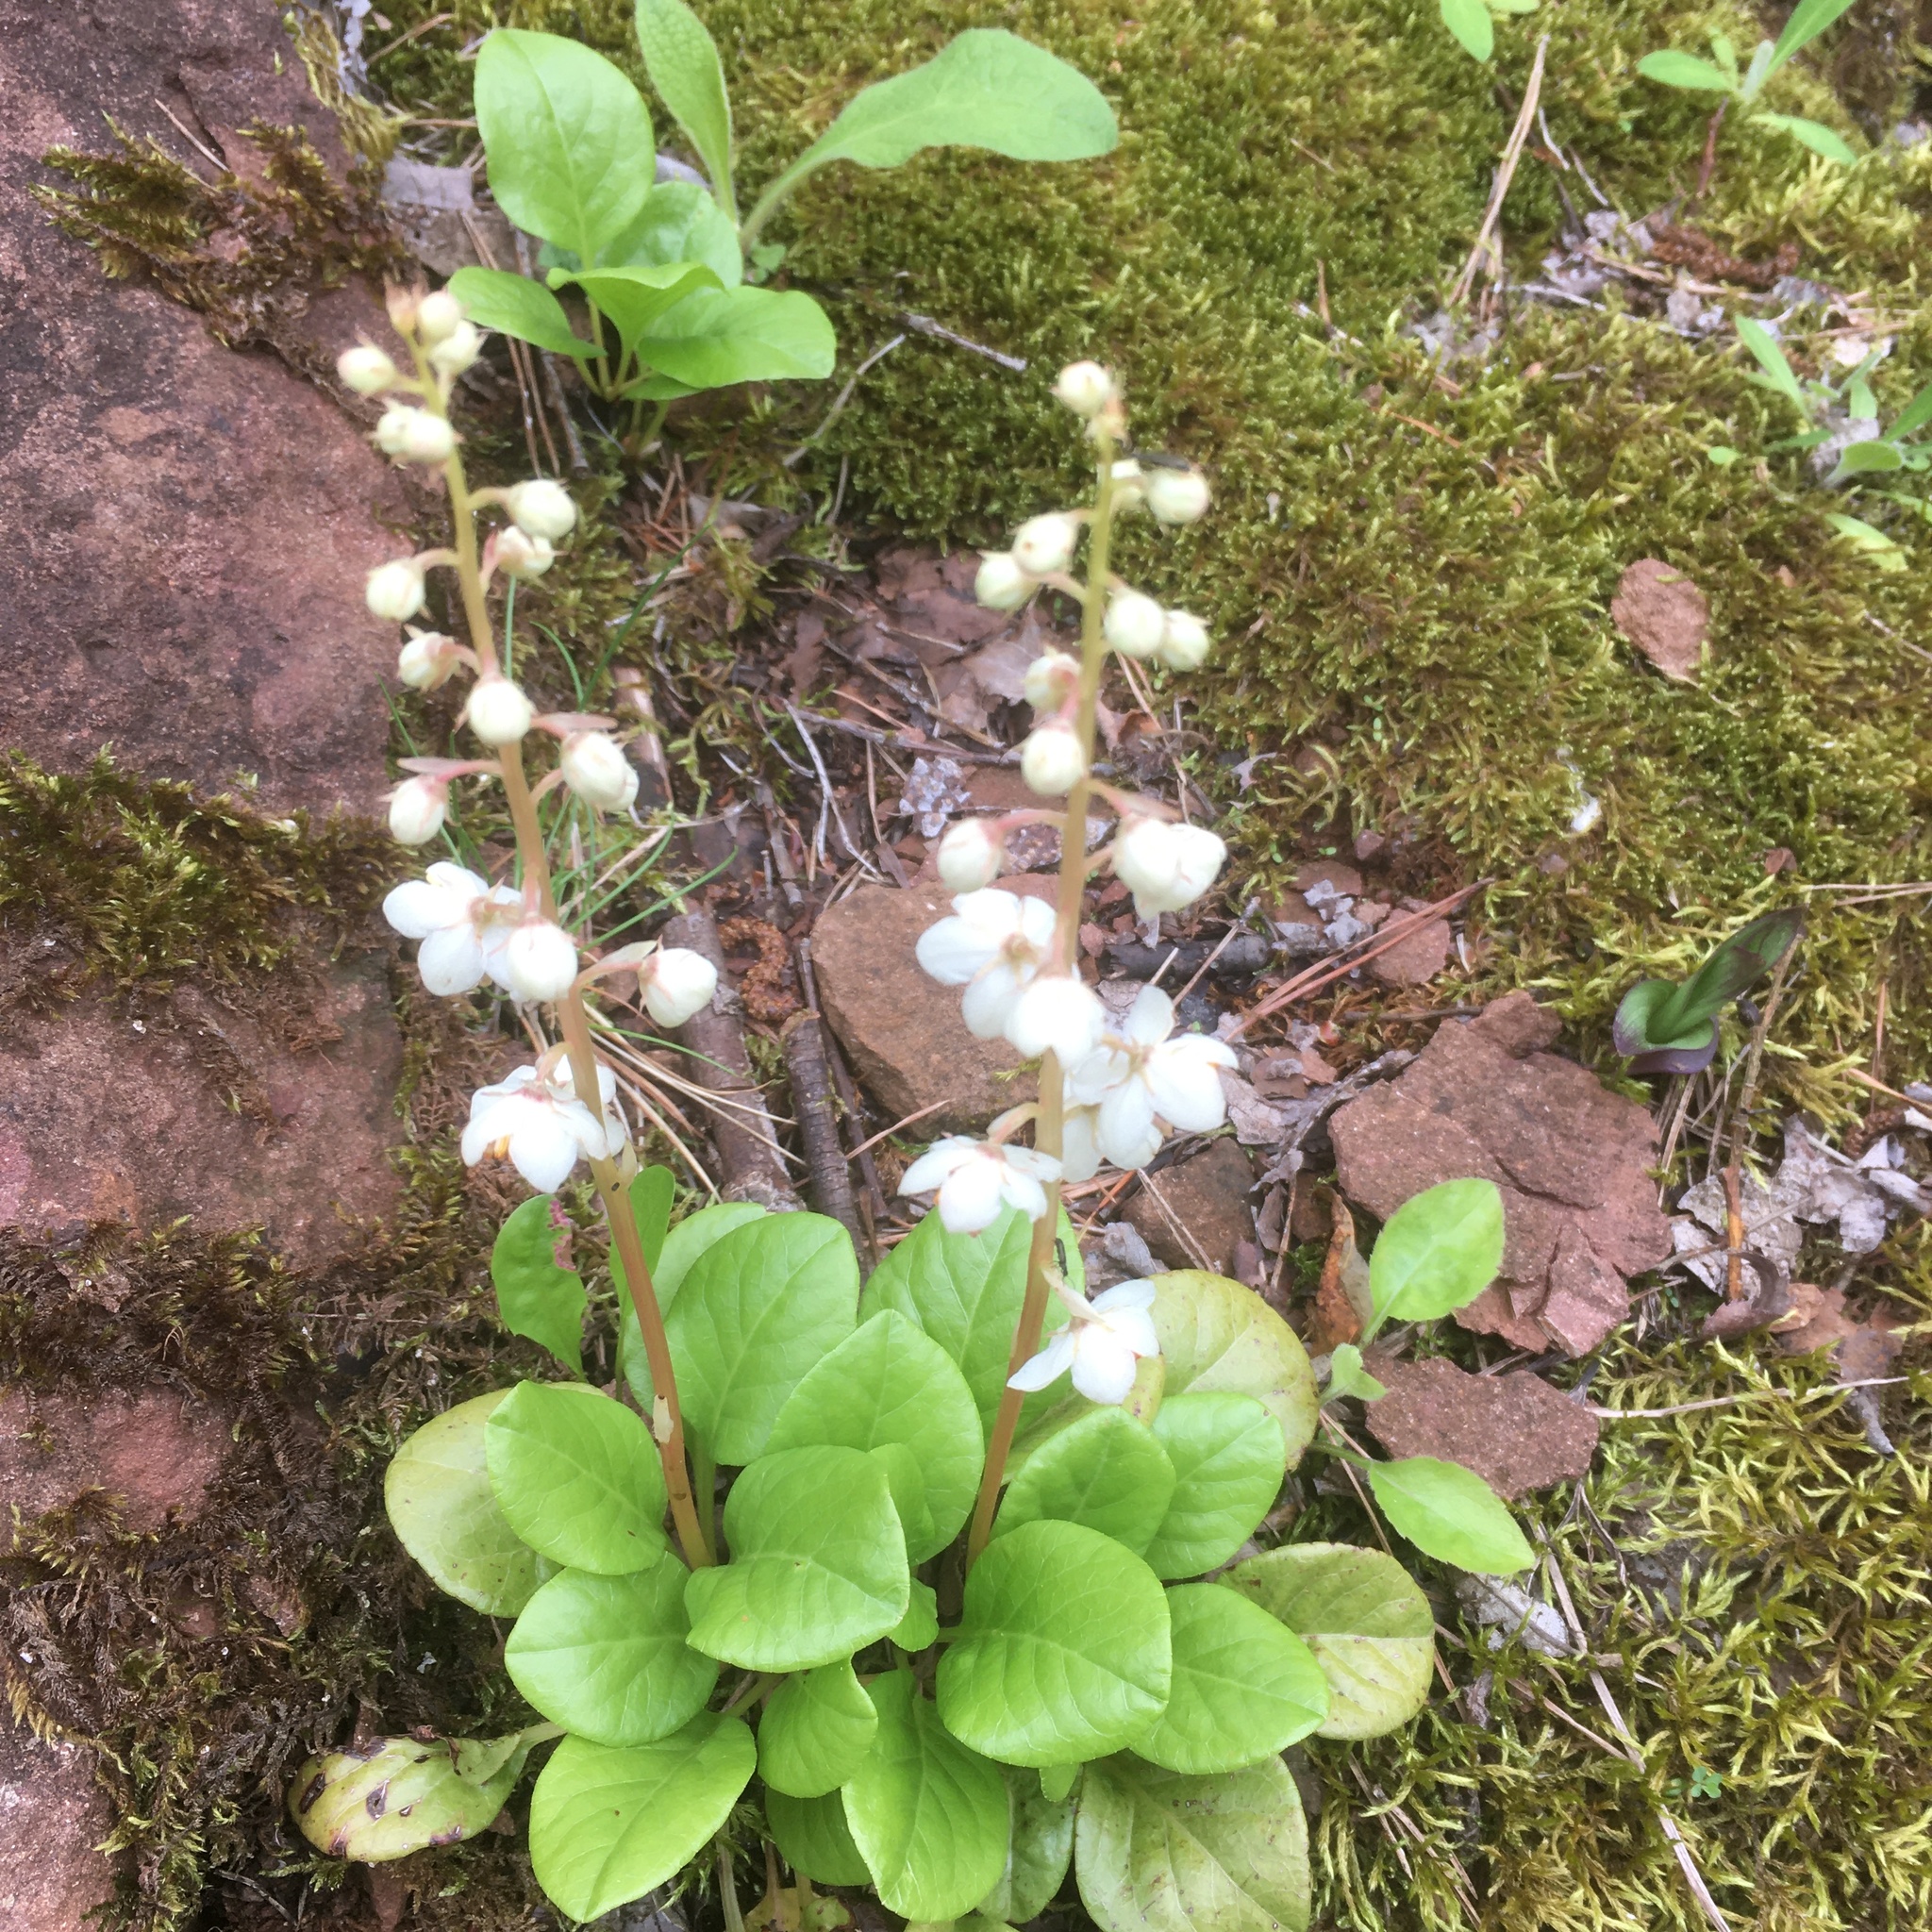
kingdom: Plantae
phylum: Tracheophyta
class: Magnoliopsida
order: Ericales
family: Ericaceae
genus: Pyrola
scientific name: Pyrola rotundifolia
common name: Round-leaved wintergreen
